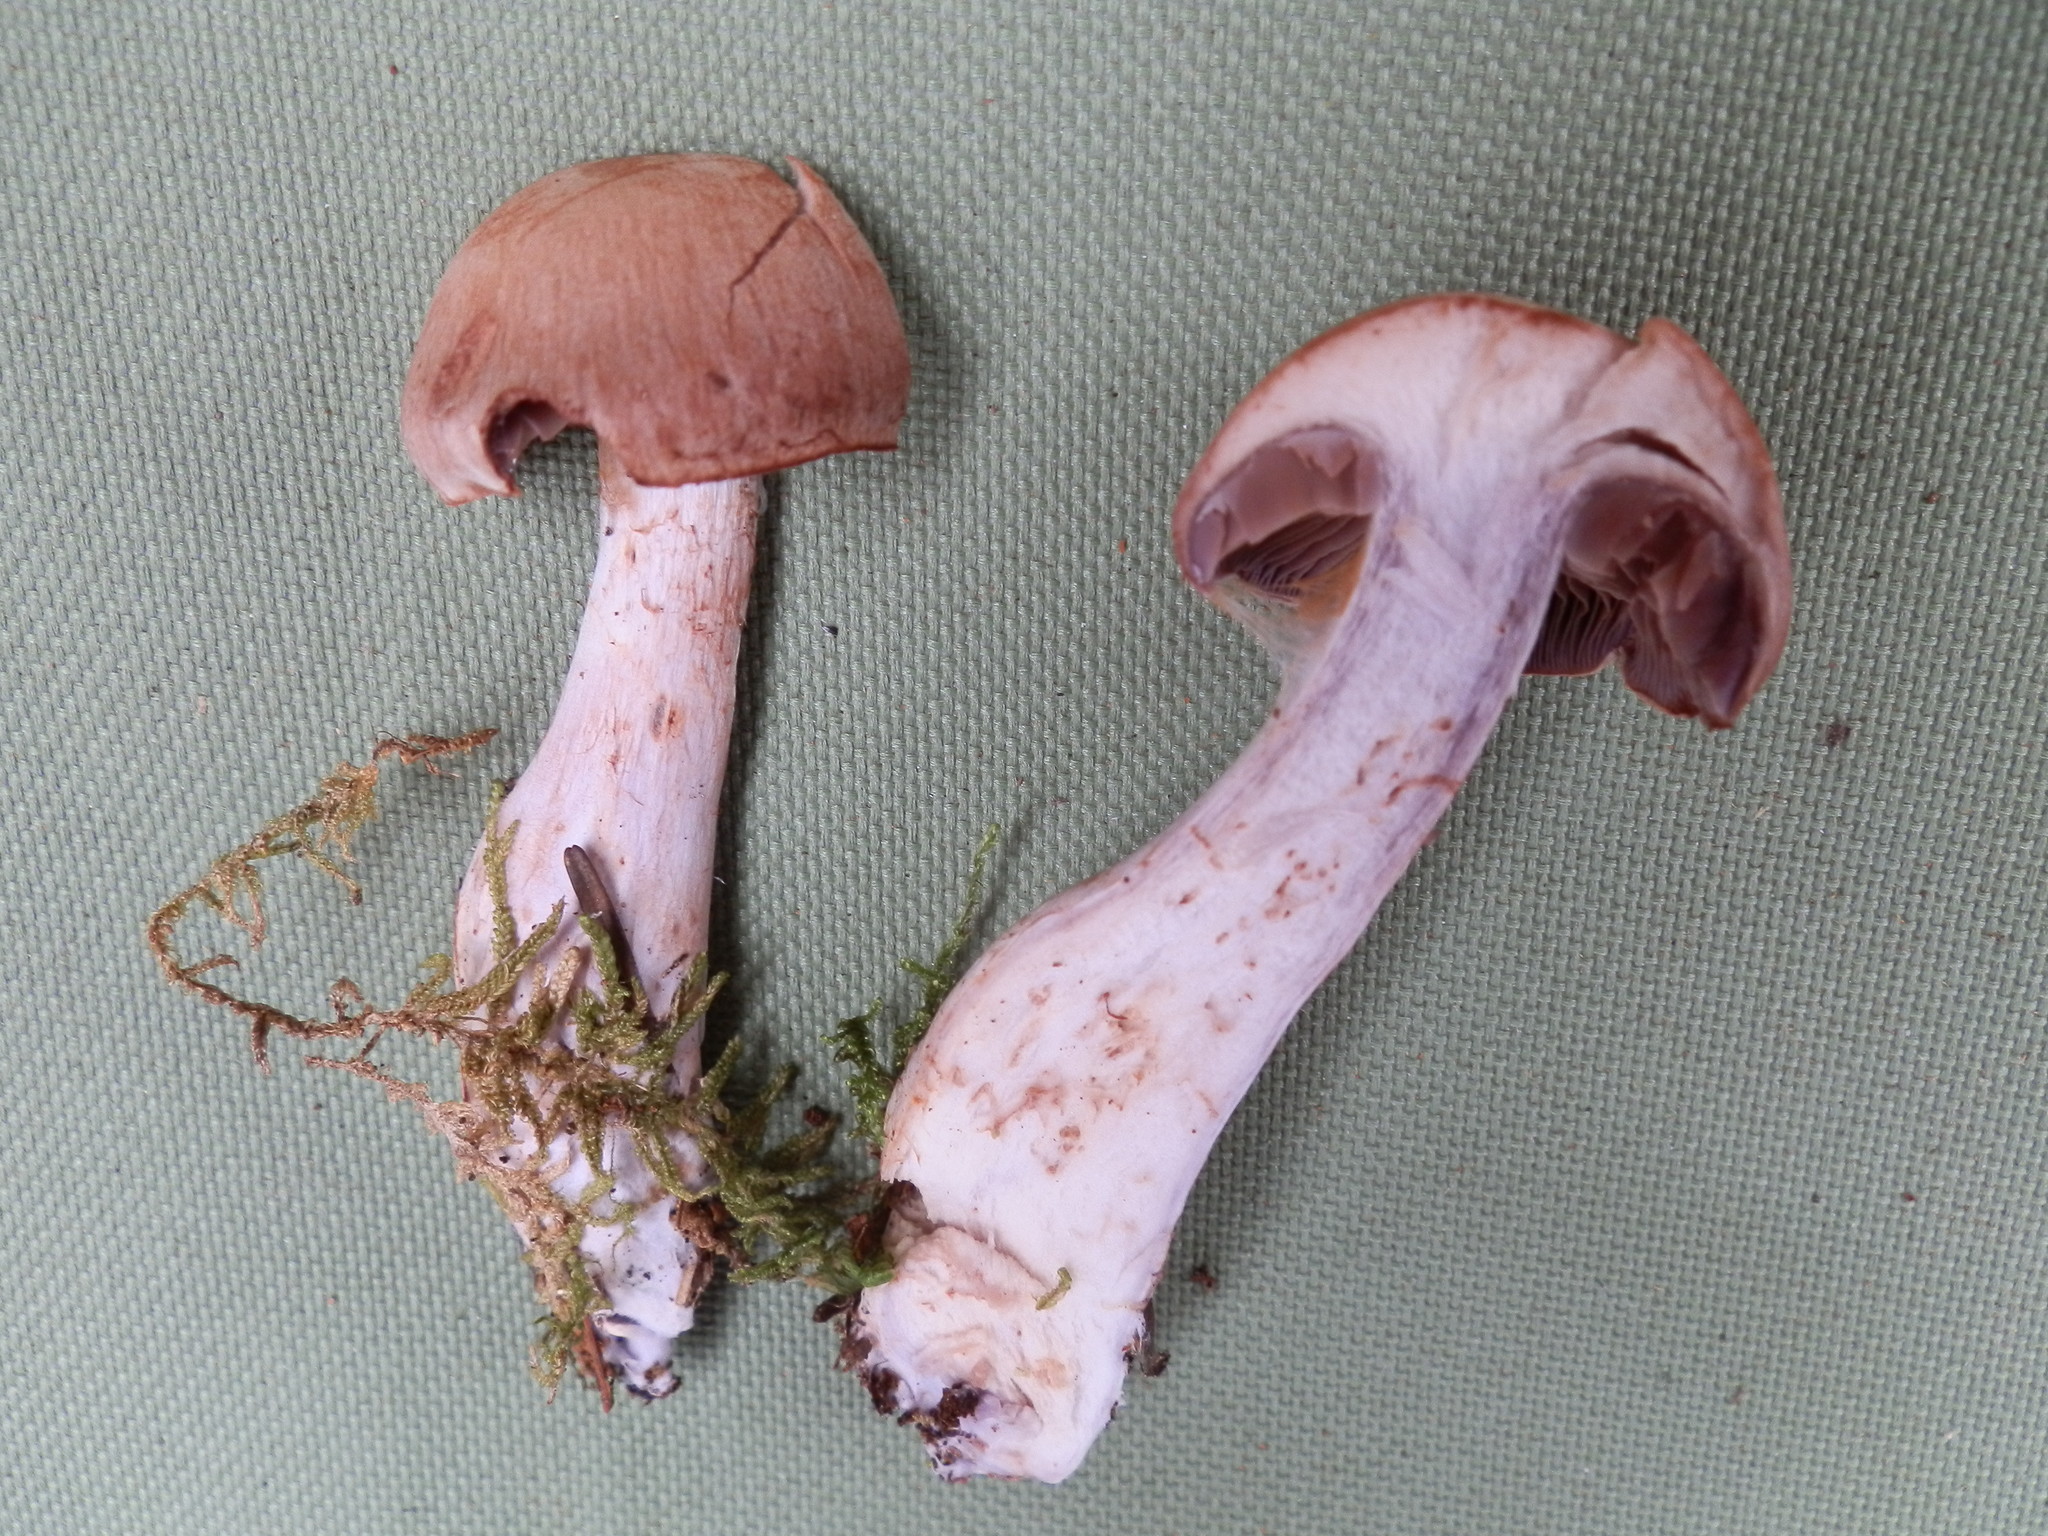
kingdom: Fungi
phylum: Basidiomycota
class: Agaricomycetes
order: Agaricales
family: Cortinariaceae
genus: Cortinarius
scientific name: Cortinarius dionysae
